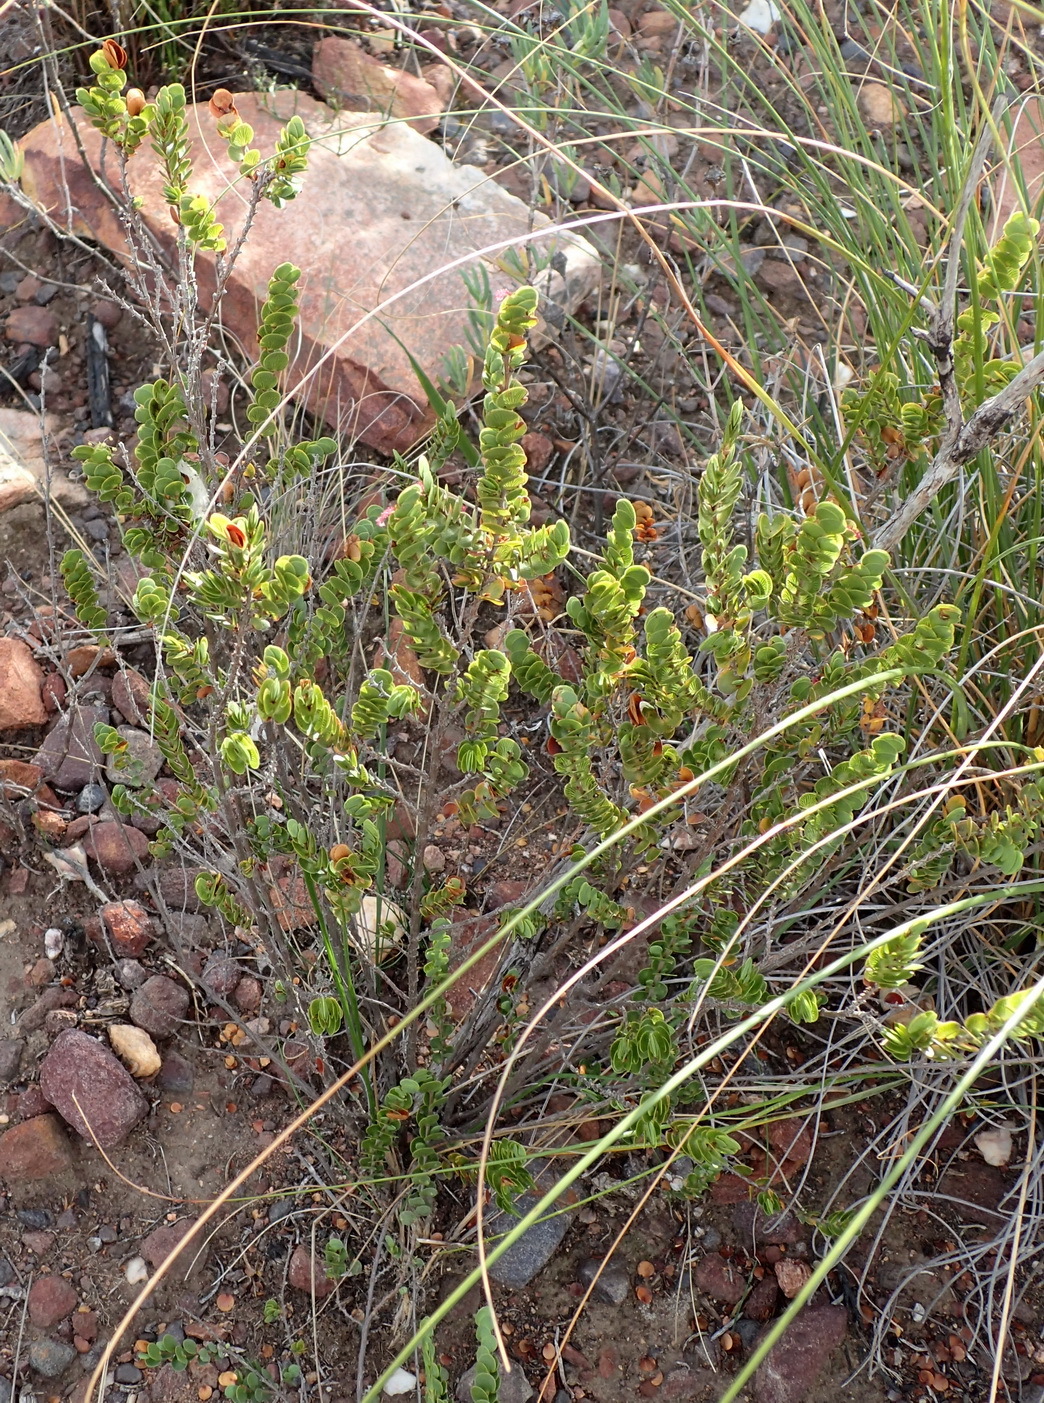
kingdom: Plantae
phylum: Tracheophyta
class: Magnoliopsida
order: Rosales
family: Rosaceae
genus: Cliffortia
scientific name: Cliffortia pulchella
